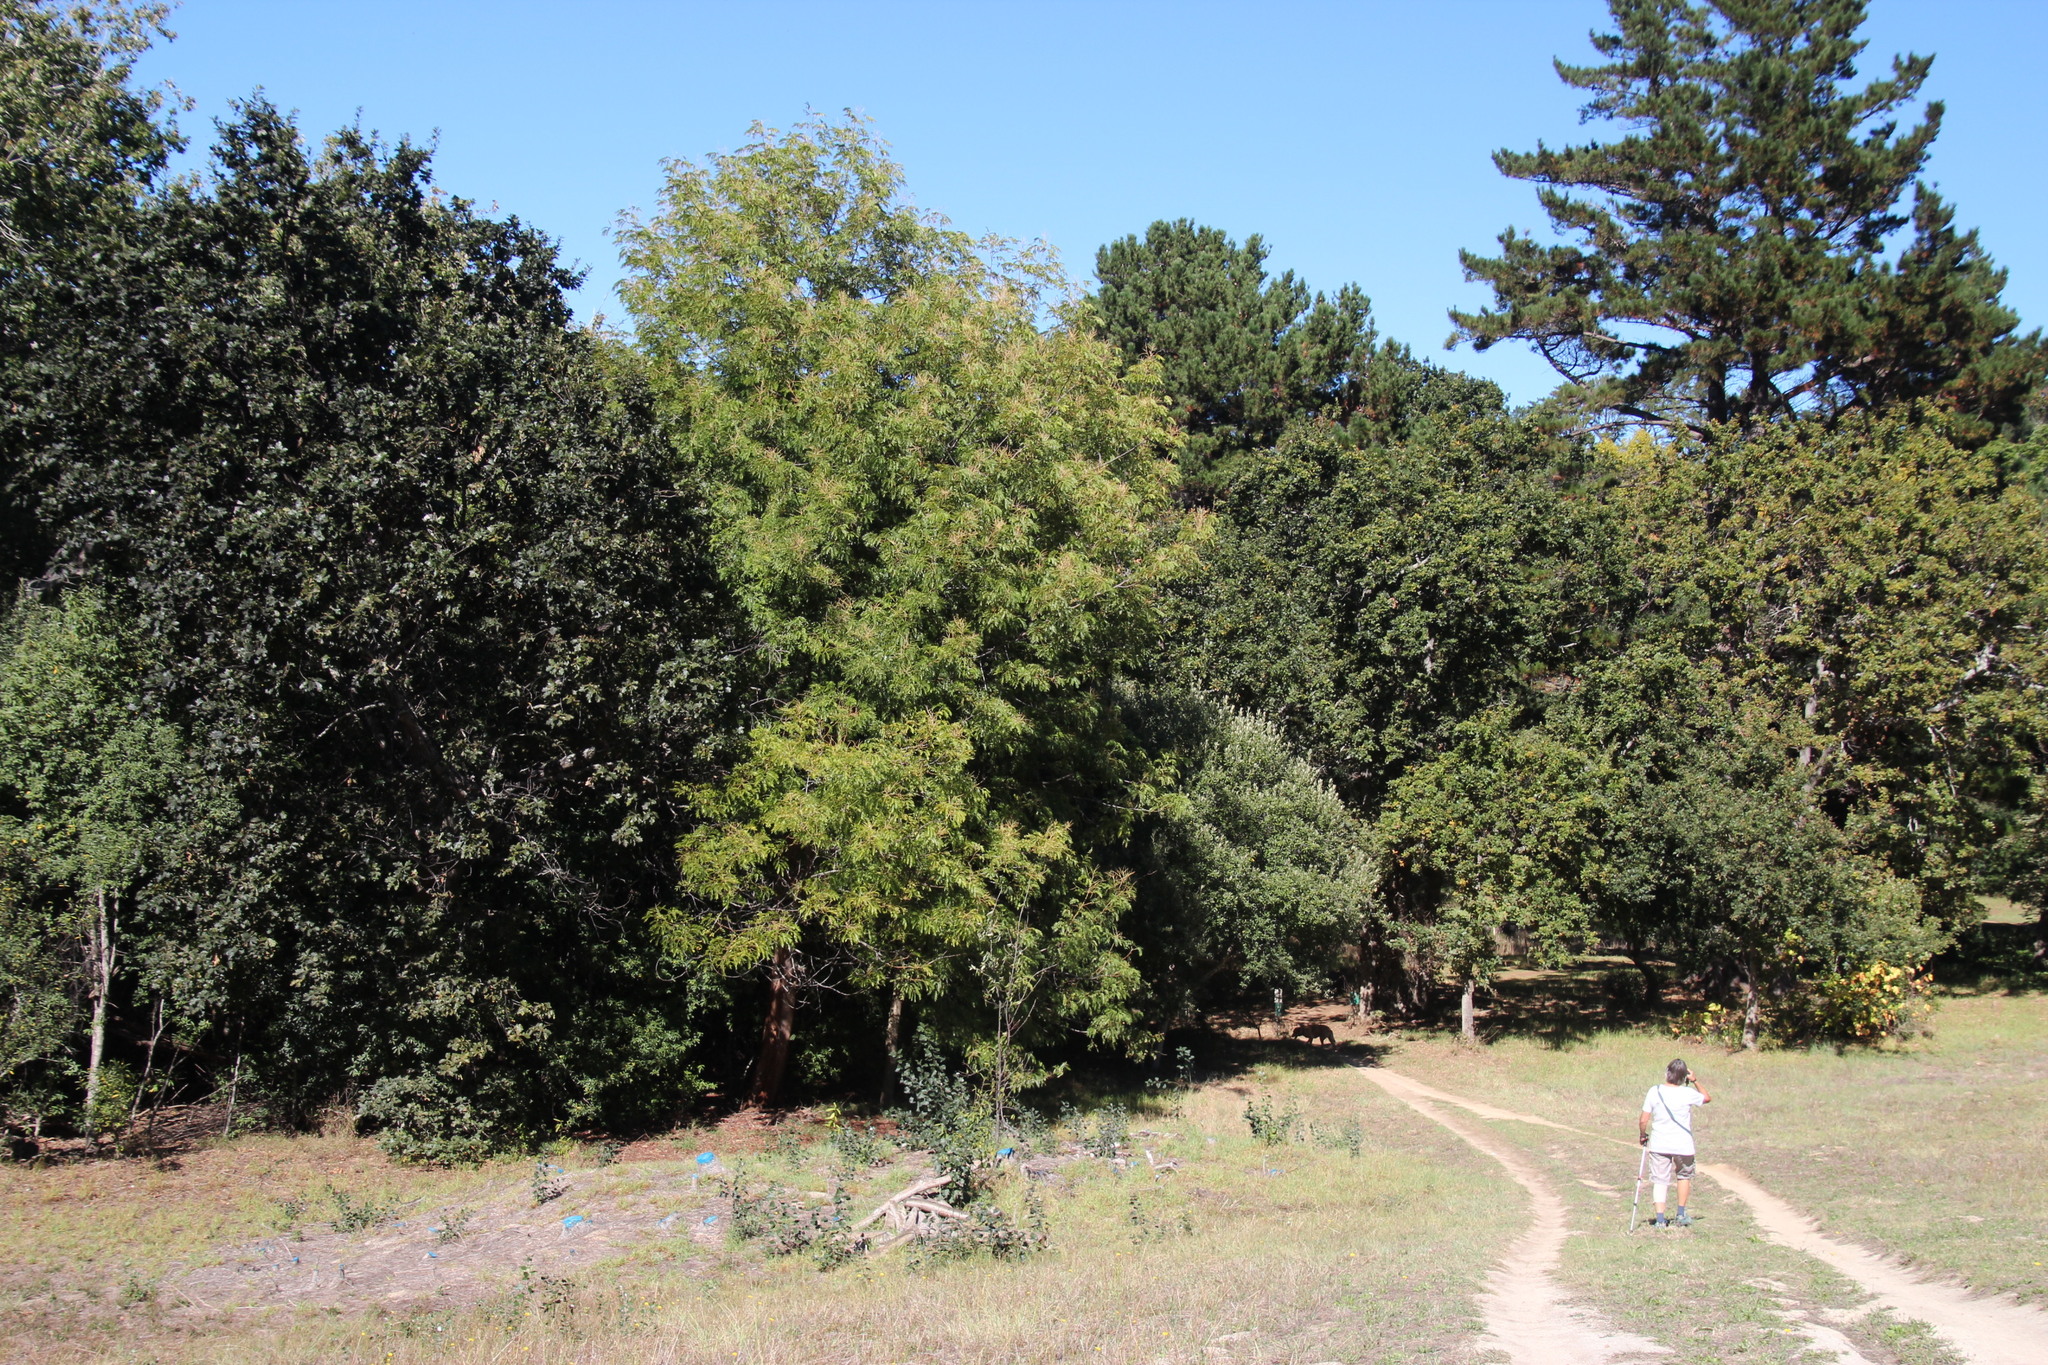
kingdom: Plantae
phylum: Tracheophyta
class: Magnoliopsida
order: Fabales
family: Fabaceae
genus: Acacia
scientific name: Acacia elata
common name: Cedar wattle
